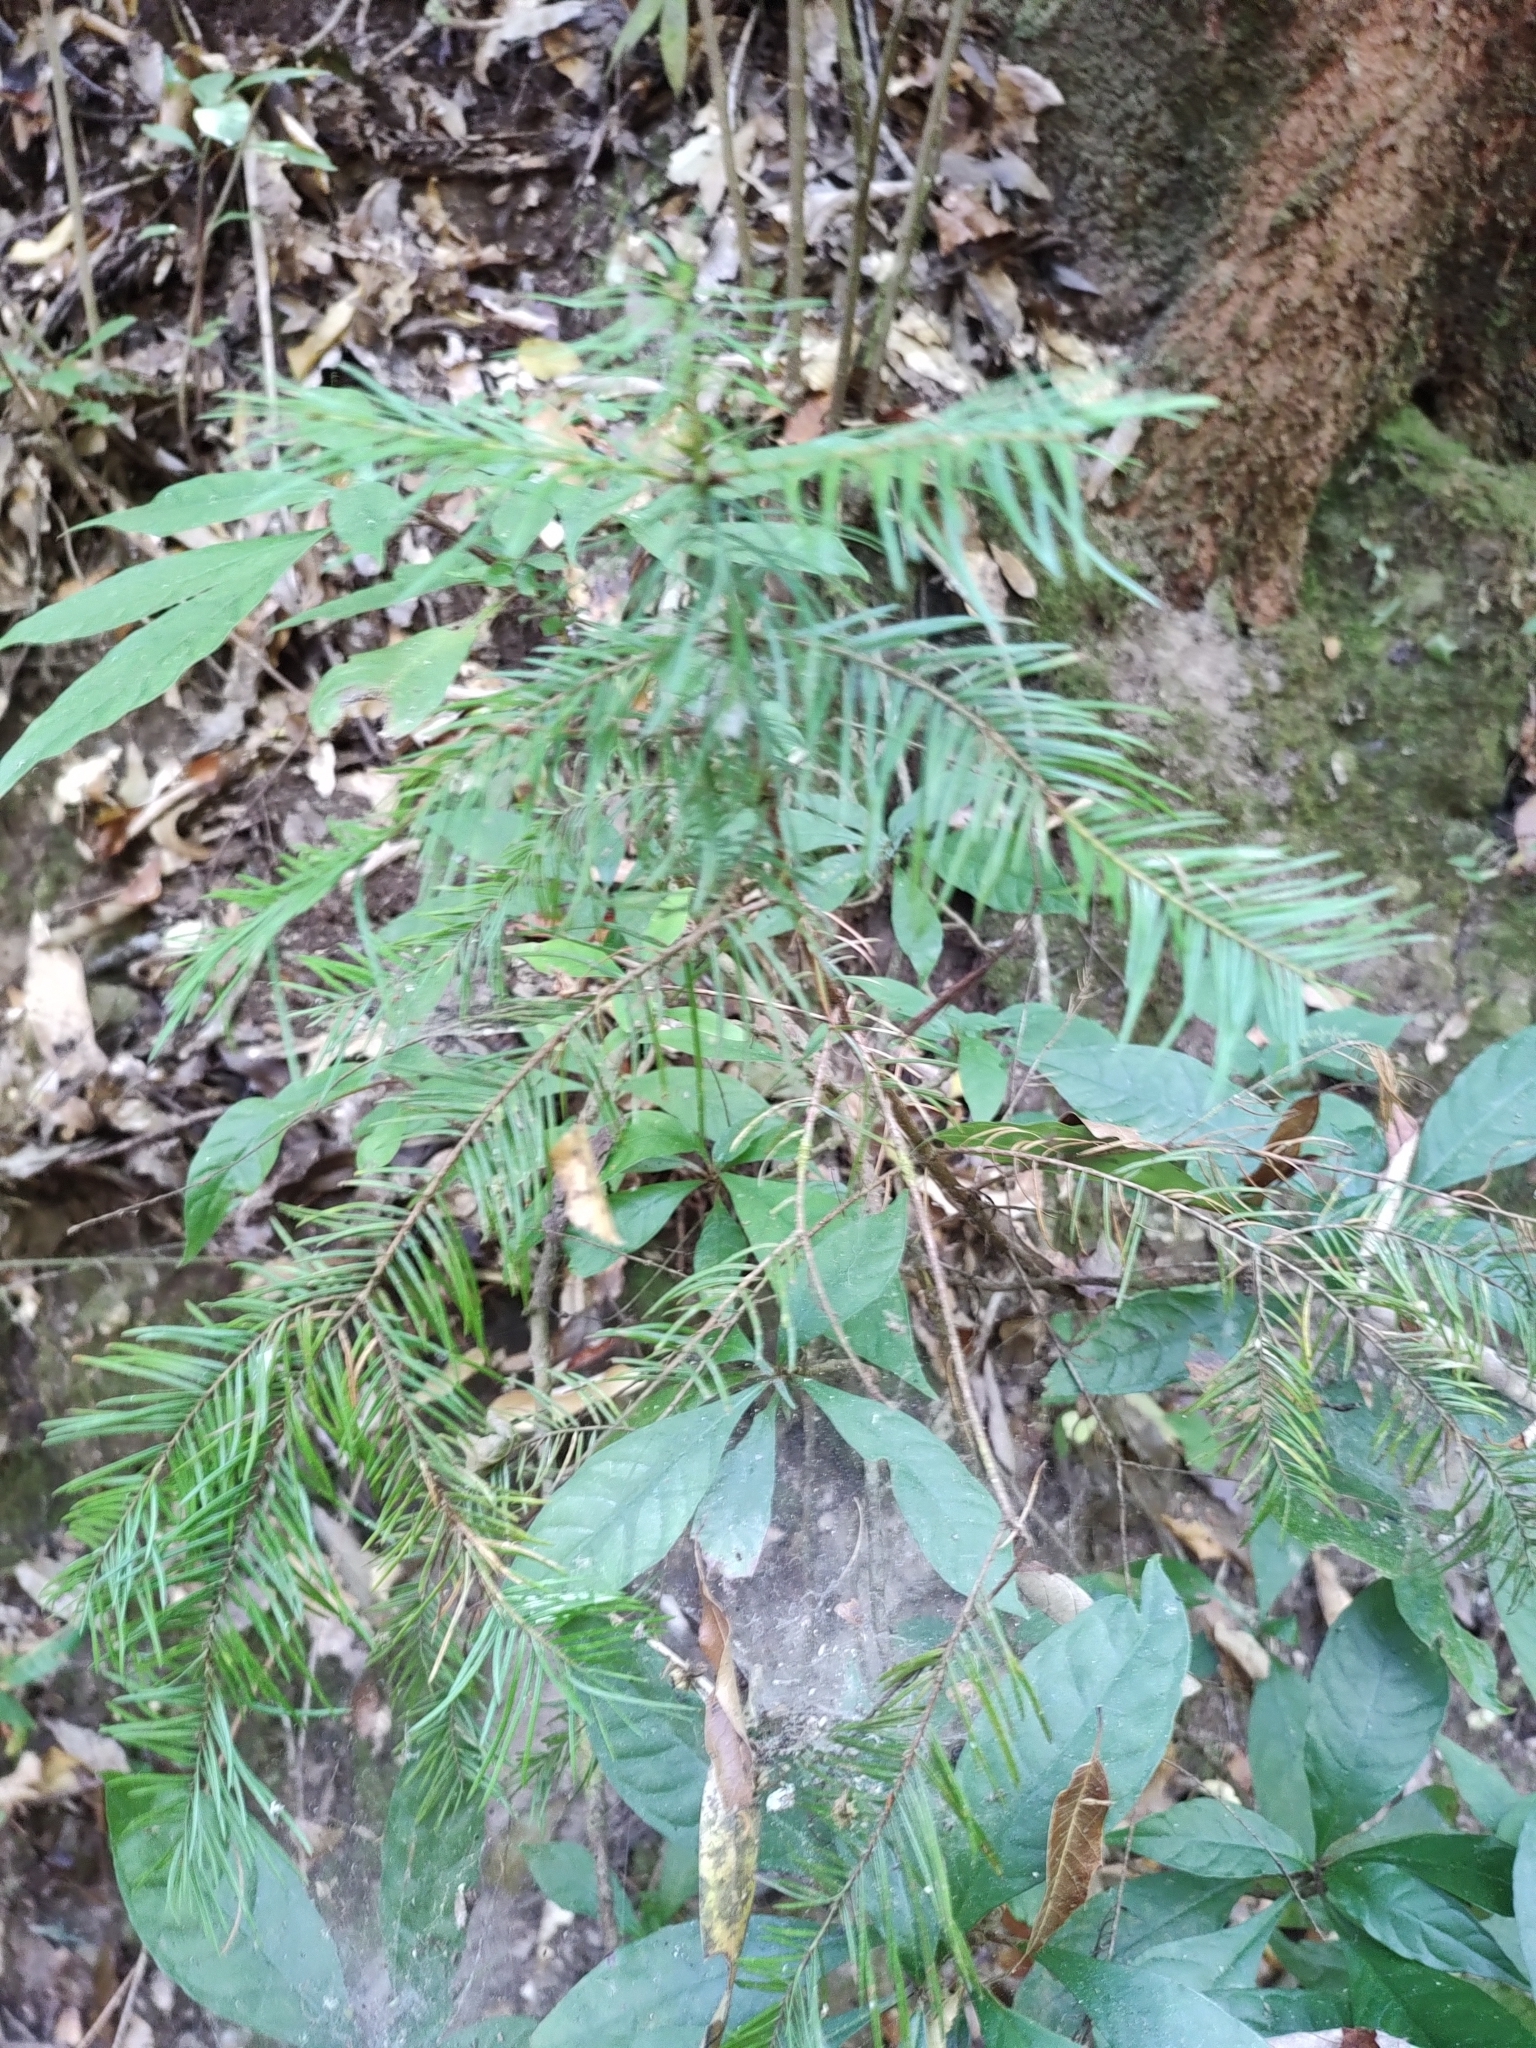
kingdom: Plantae
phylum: Tracheophyta
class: Pinopsida
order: Pinales
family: Pinaceae
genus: Abies
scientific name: Abies guatemalensis
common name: Guatemalan fir
